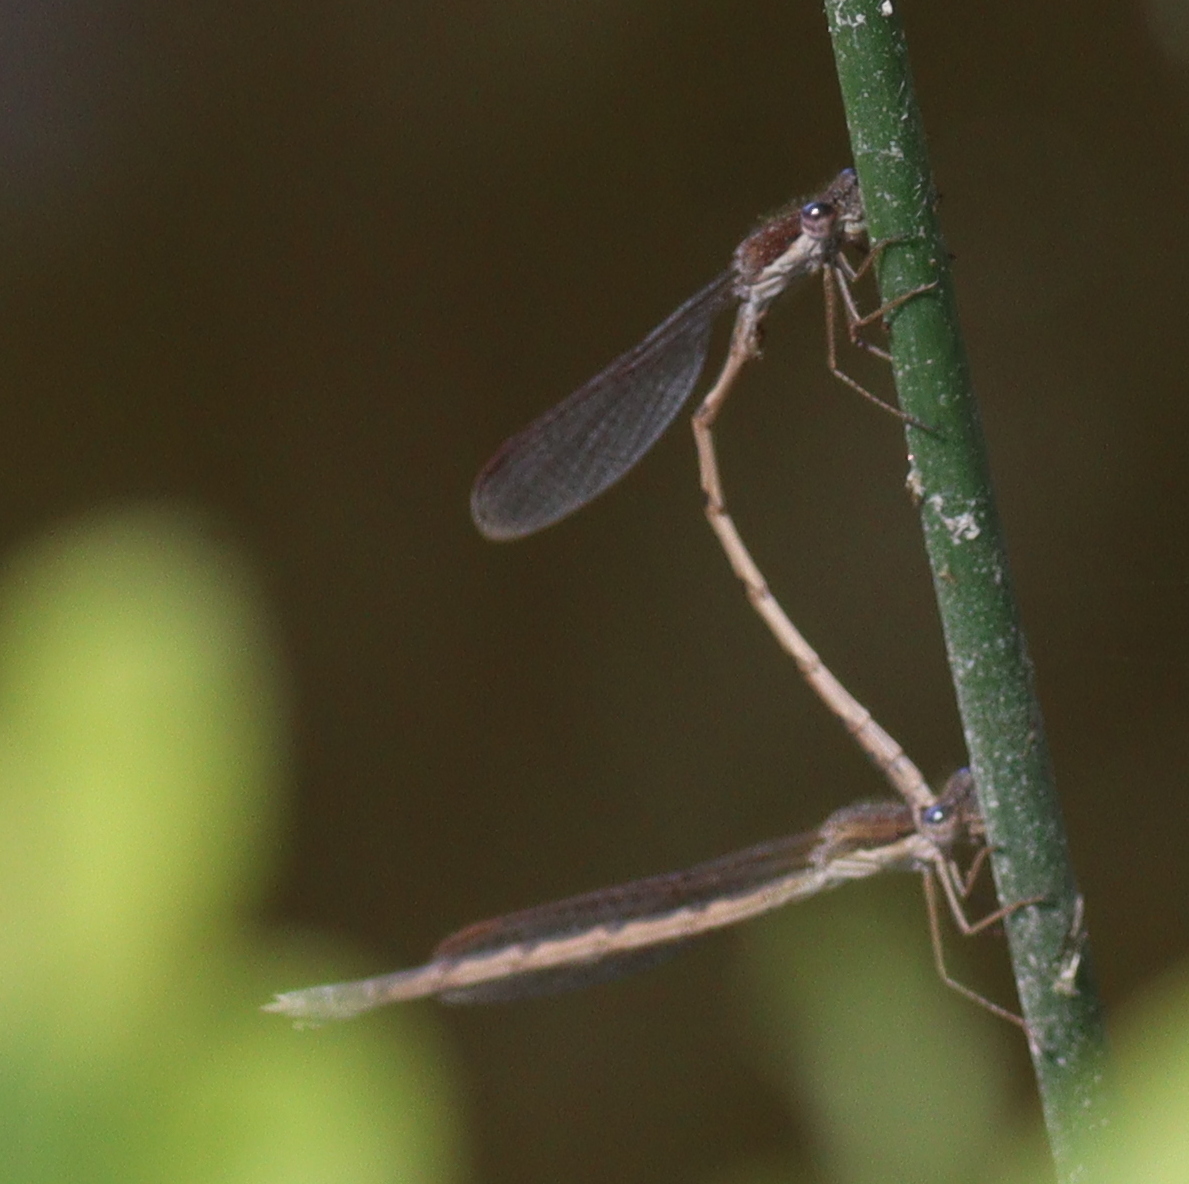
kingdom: Animalia
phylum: Arthropoda
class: Insecta
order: Odonata
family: Lestidae
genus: Sympecma
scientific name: Sympecma fusca
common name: Common winter damsel
